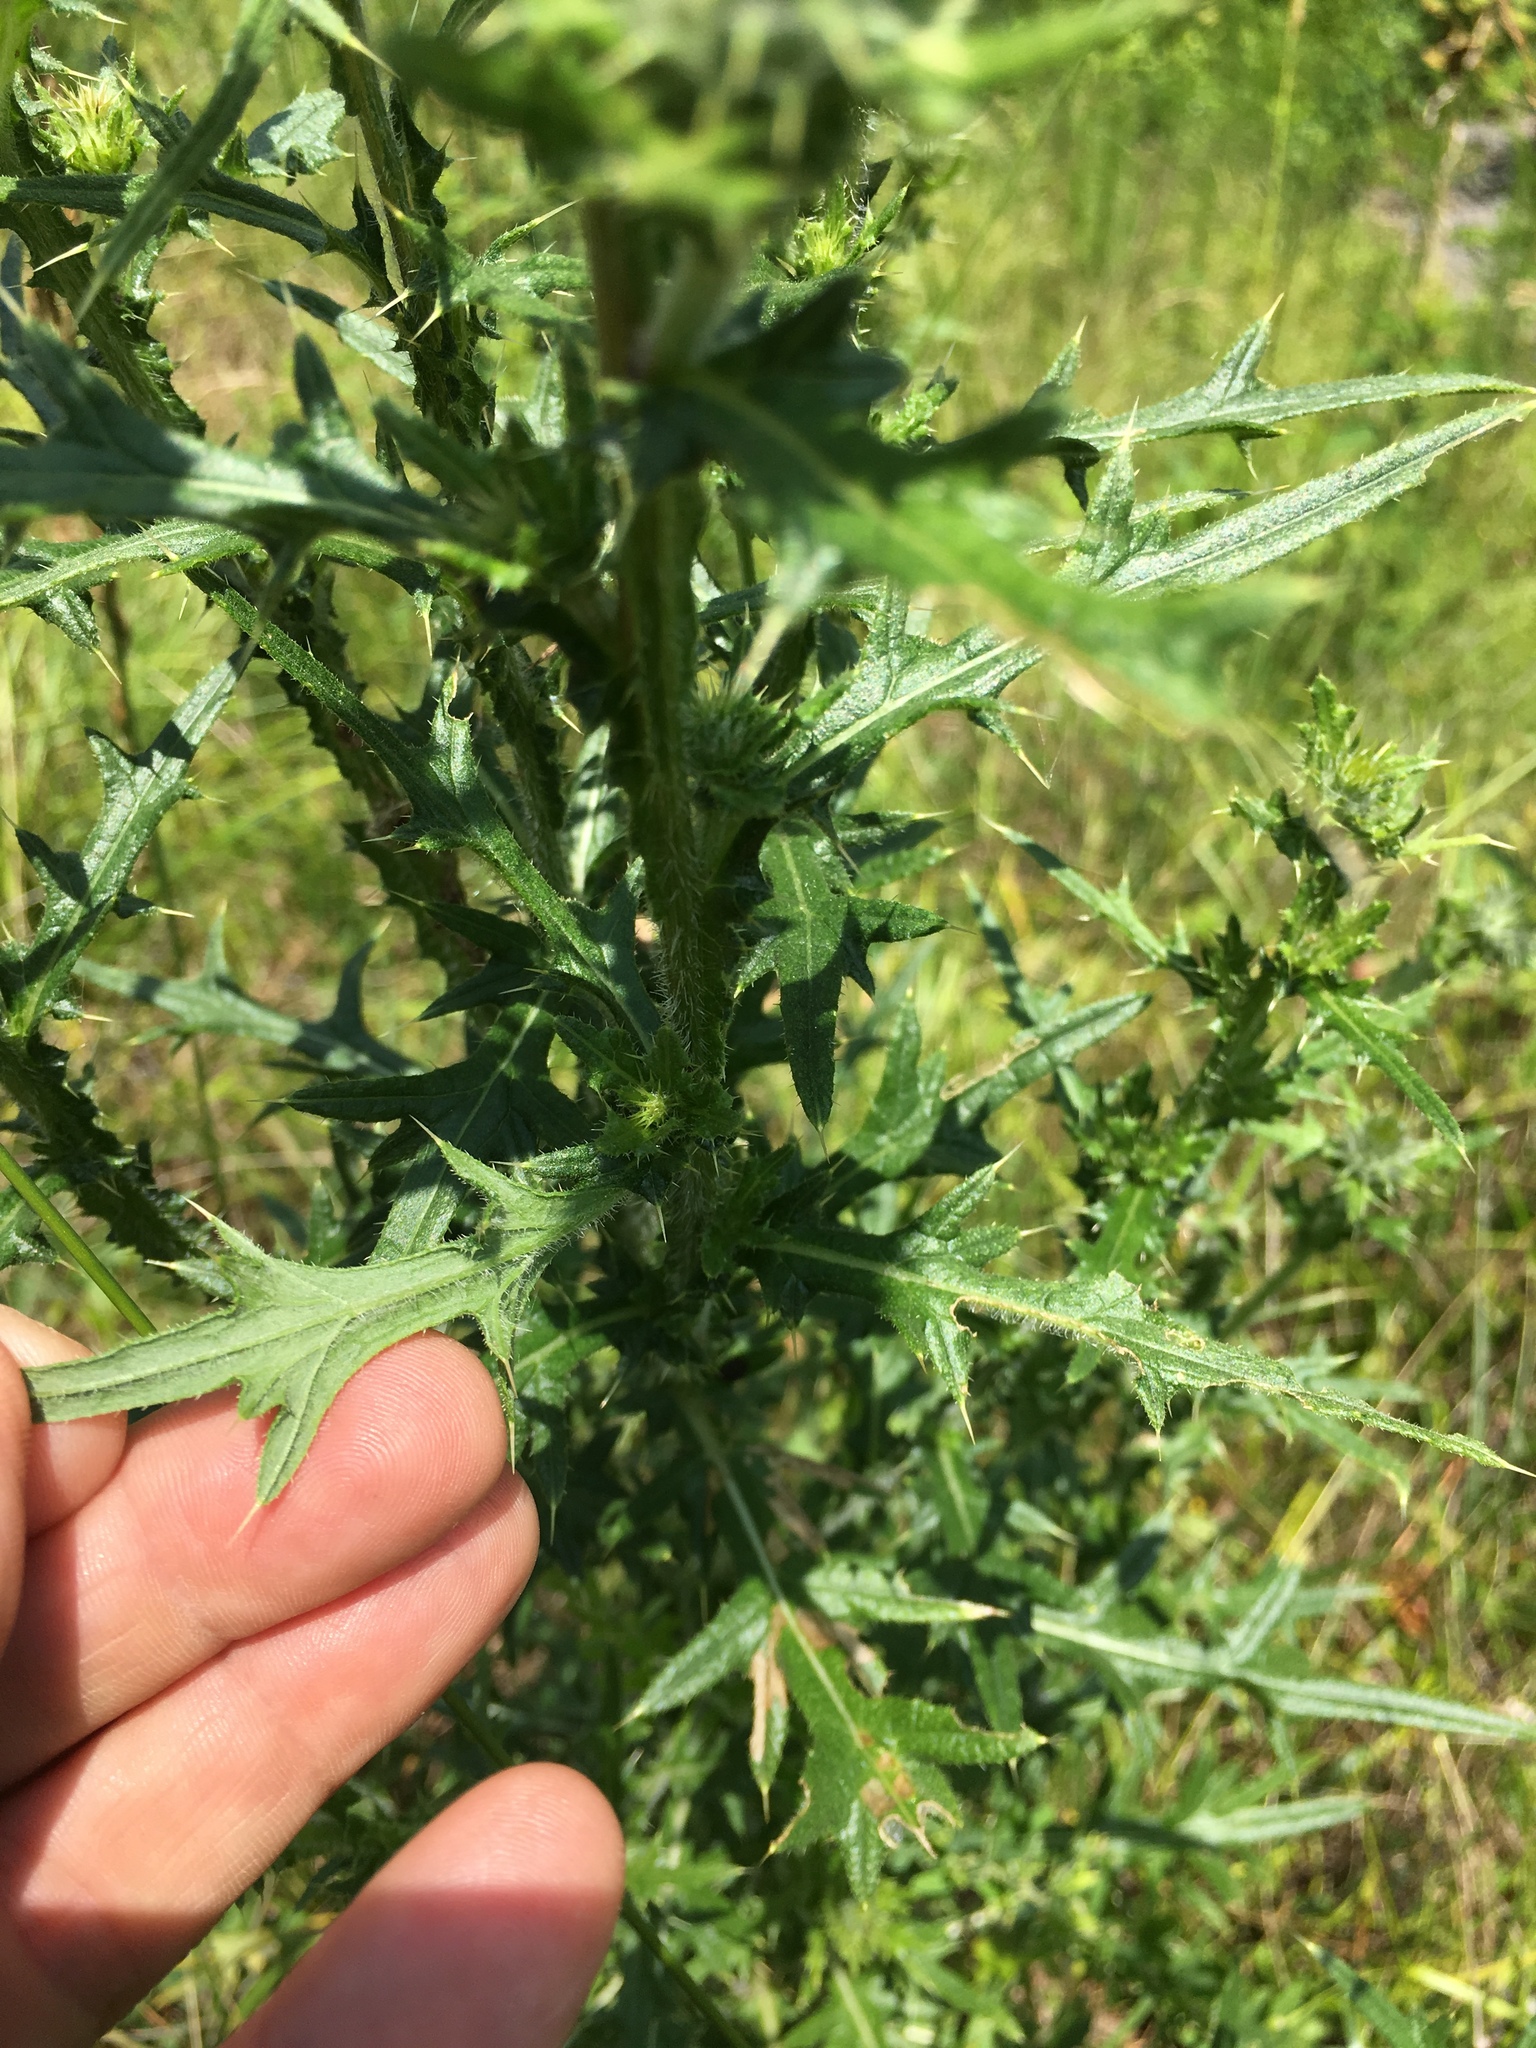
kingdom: Plantae
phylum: Tracheophyta
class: Magnoliopsida
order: Asterales
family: Asteraceae
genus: Cirsium
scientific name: Cirsium vulgare
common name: Bull thistle
